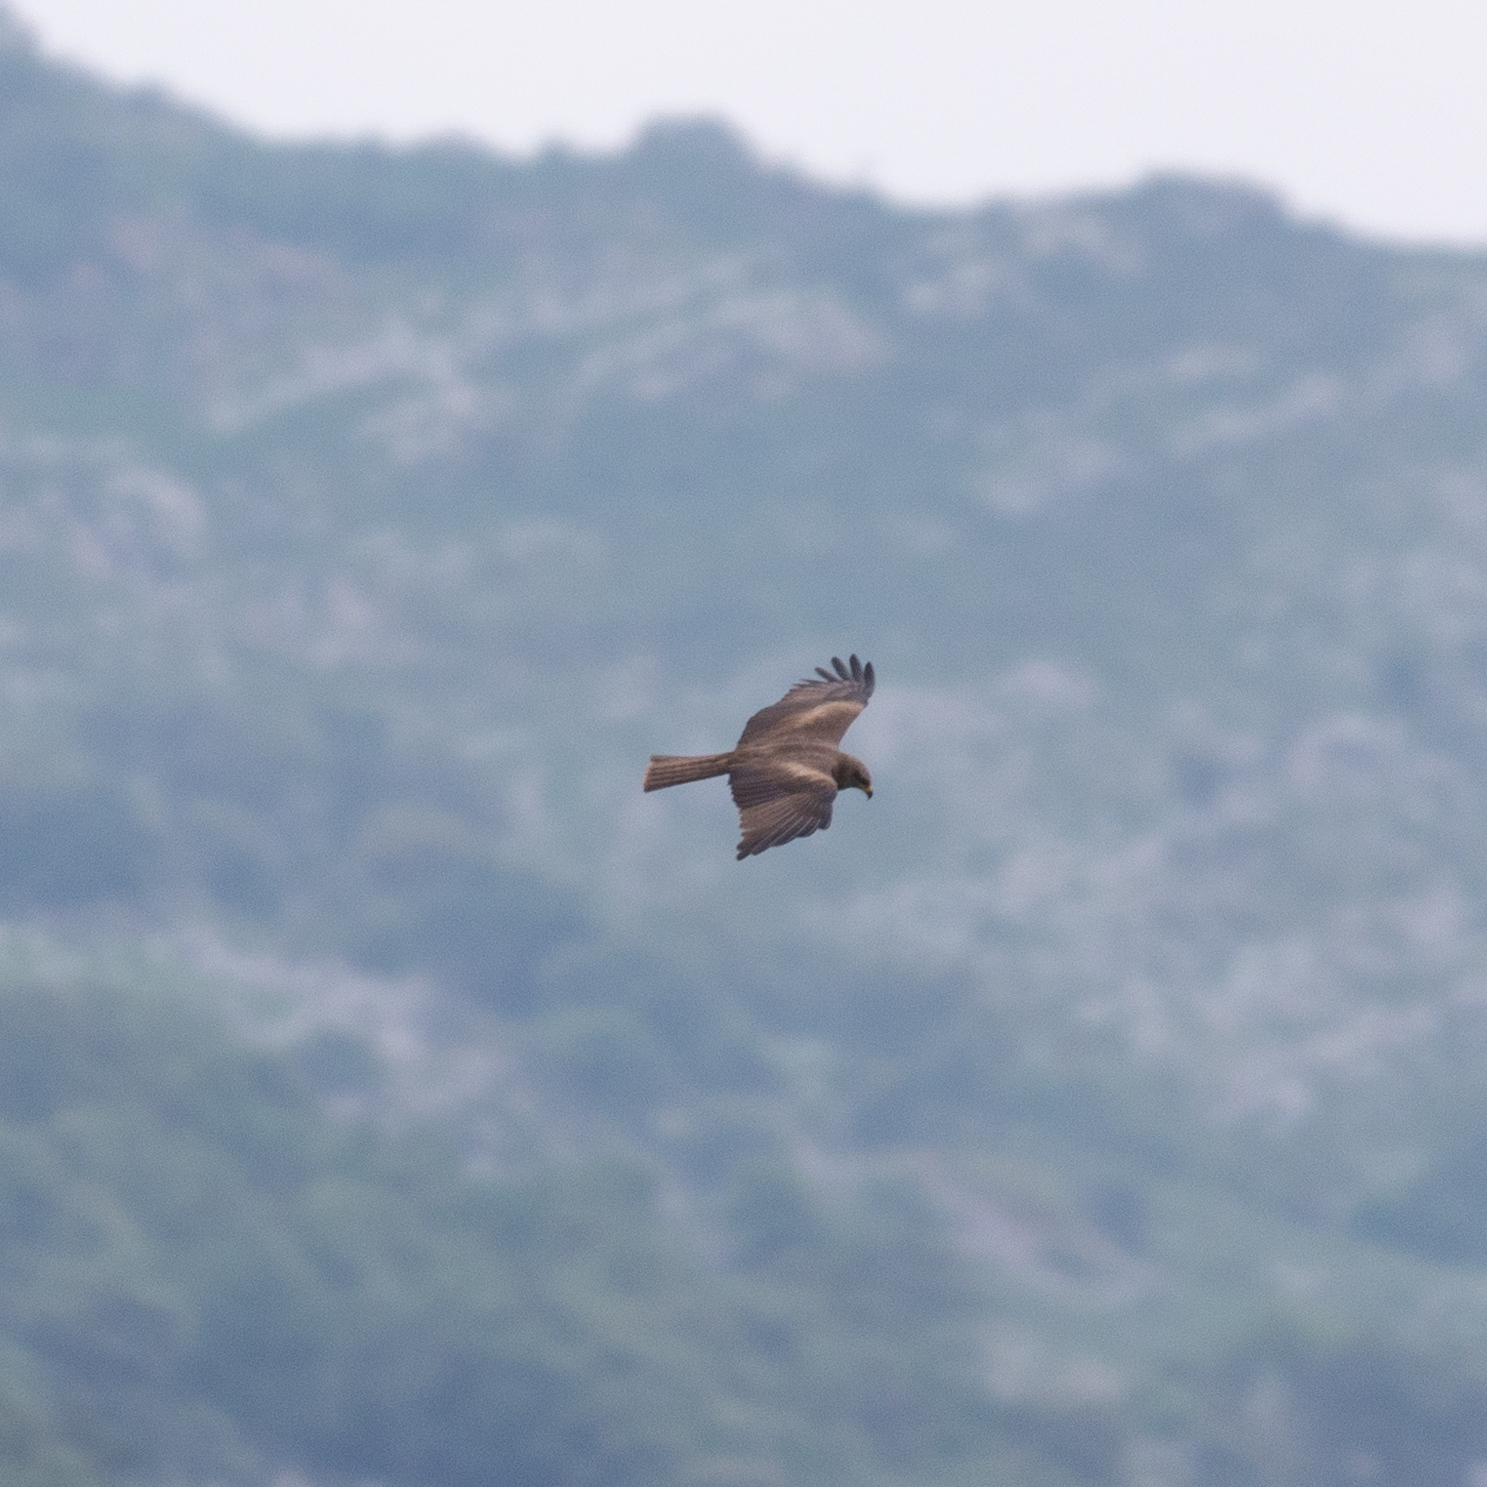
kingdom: Animalia
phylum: Chordata
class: Aves
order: Accipitriformes
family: Accipitridae
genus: Milvus
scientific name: Milvus migrans
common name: Black kite
